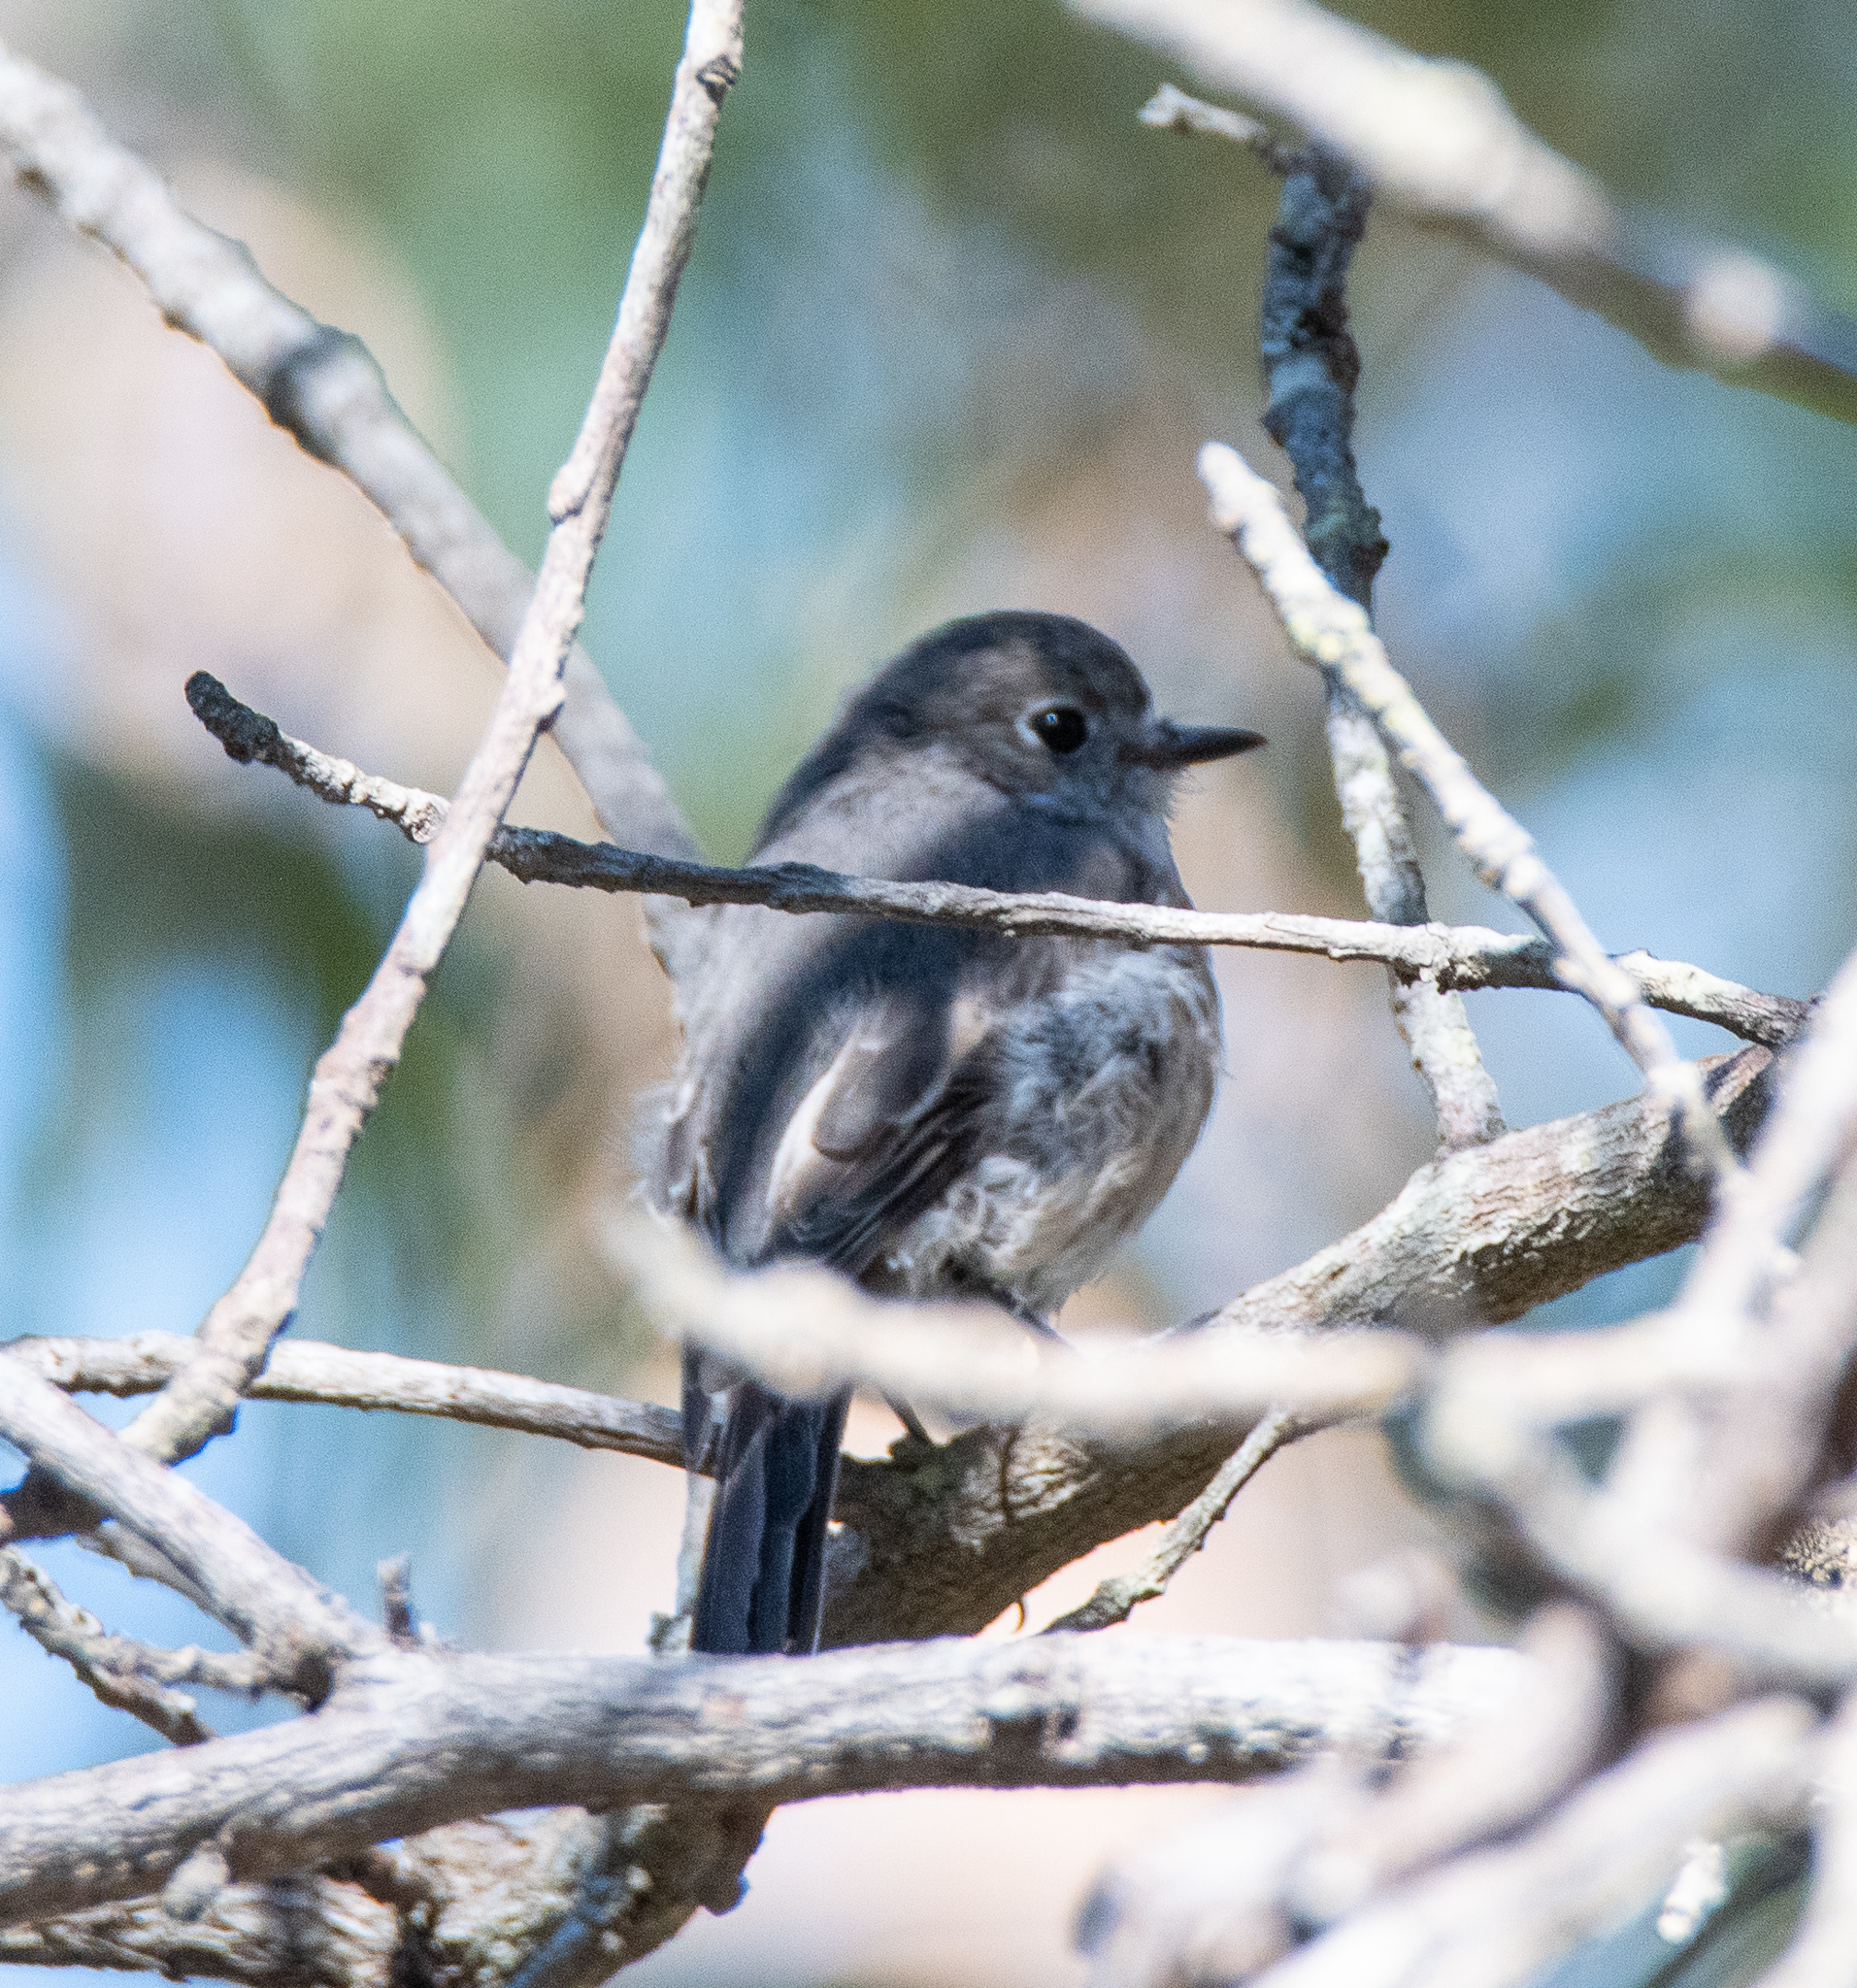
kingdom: Animalia
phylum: Chordata
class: Aves
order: Passeriformes
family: Petroicidae
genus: Petroica
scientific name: Petroica boodang
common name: Scarlet robin
